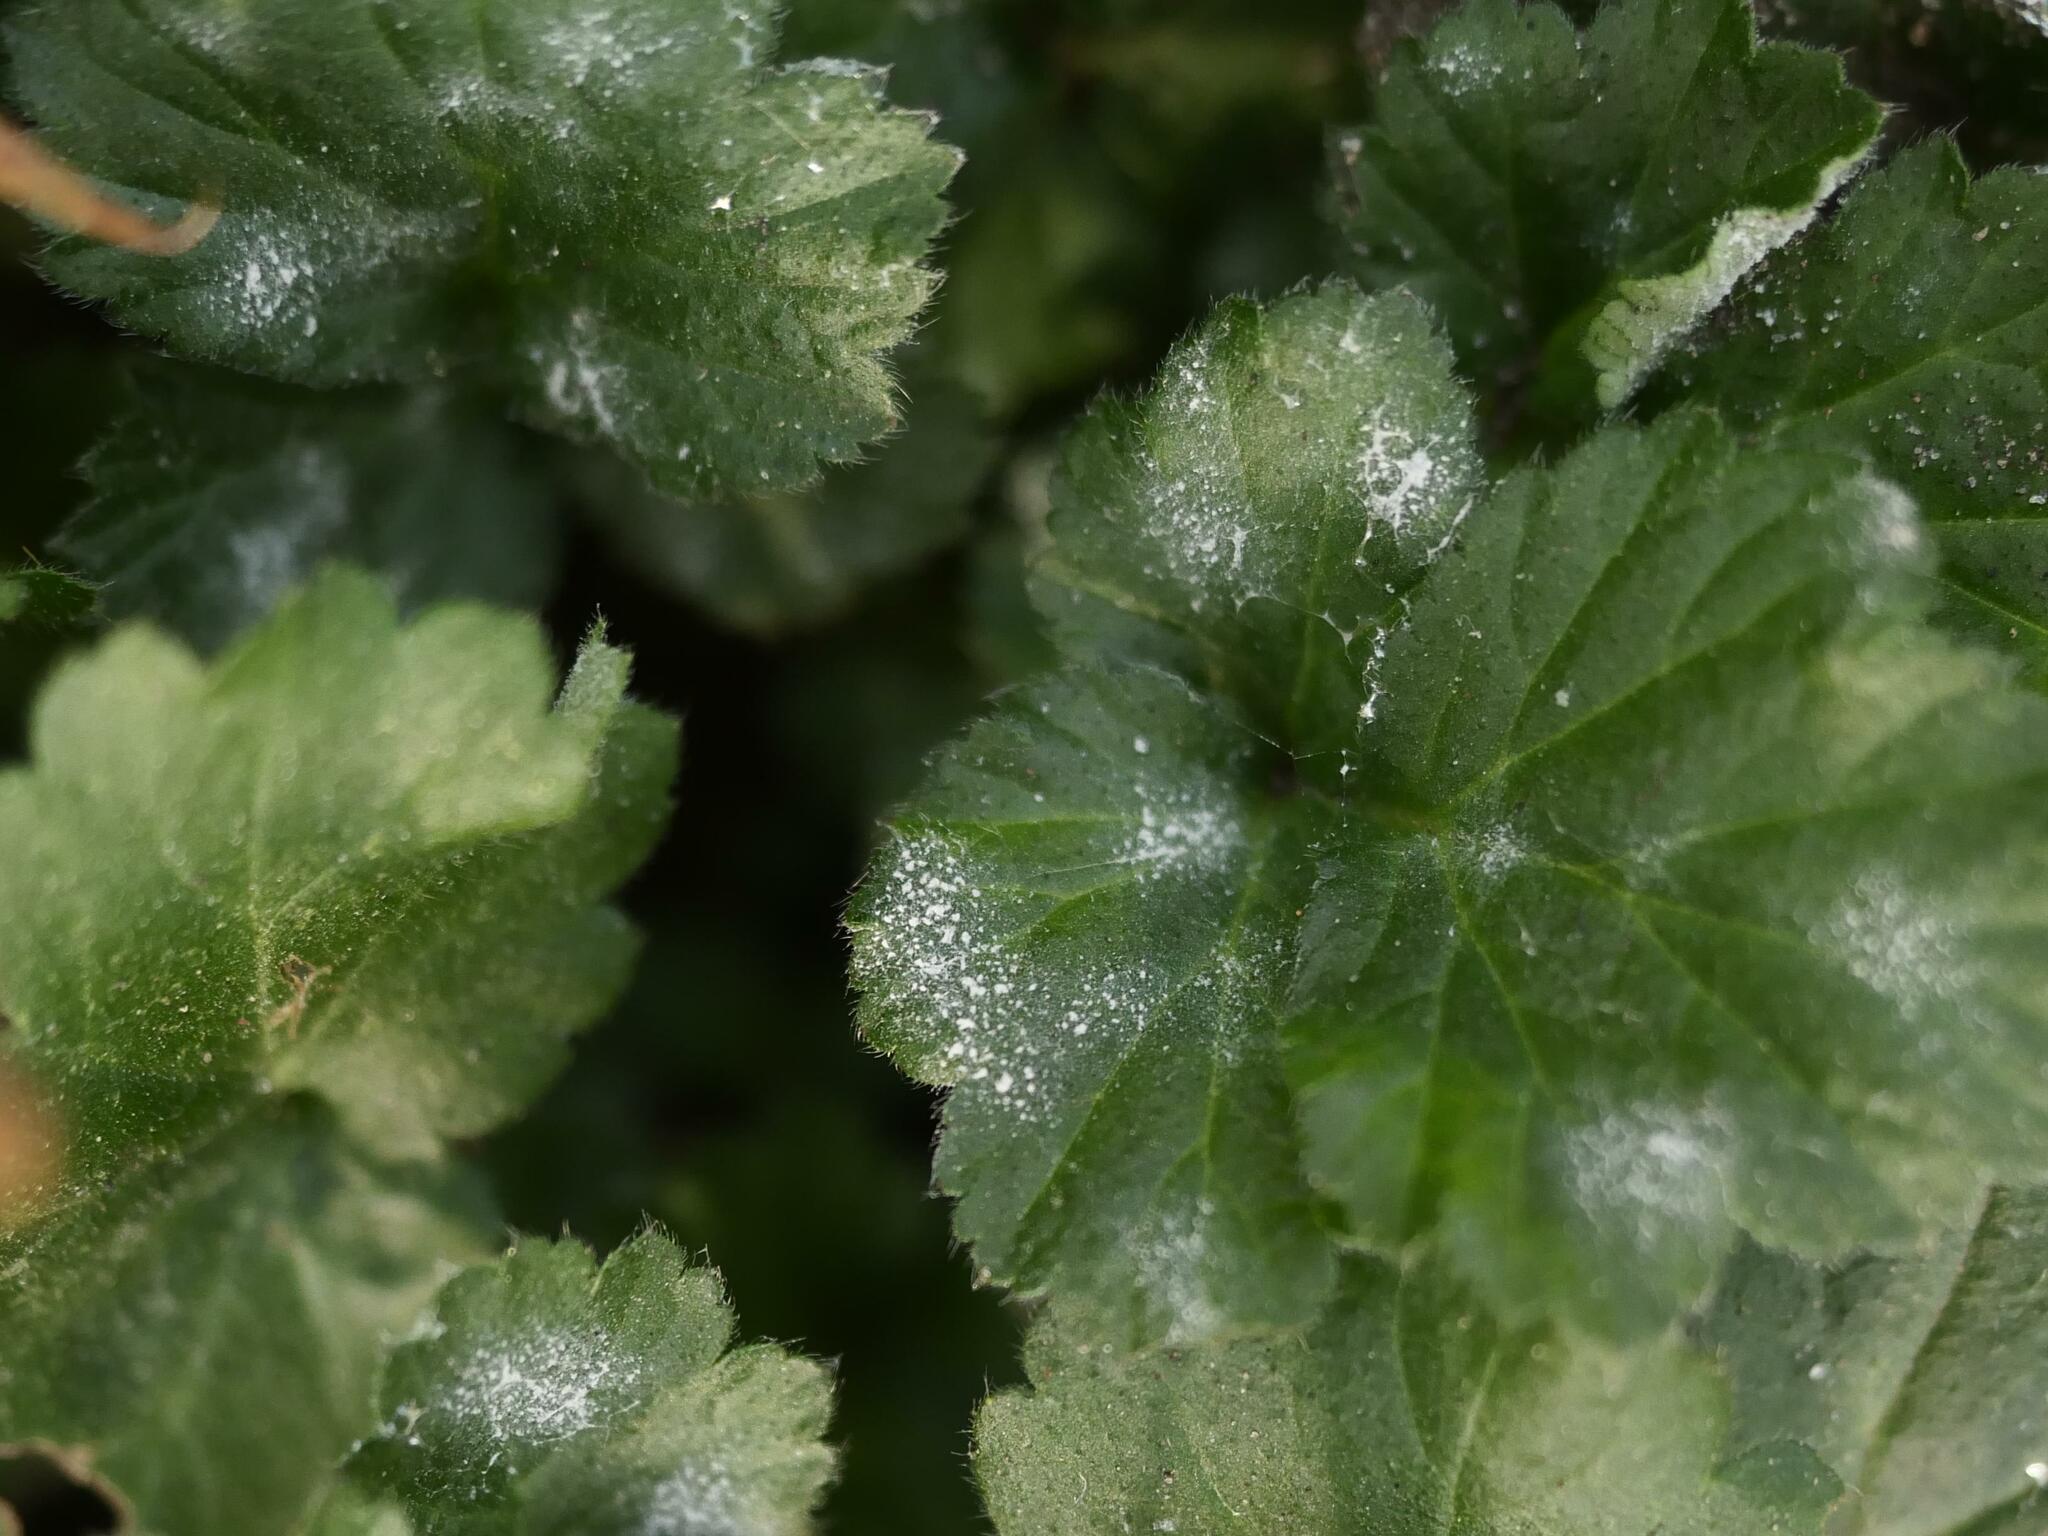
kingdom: Fungi
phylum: Ascomycota
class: Leotiomycetes
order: Helotiales
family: Erysiphaceae
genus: Podosphaera
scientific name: Podosphaera aphanis
